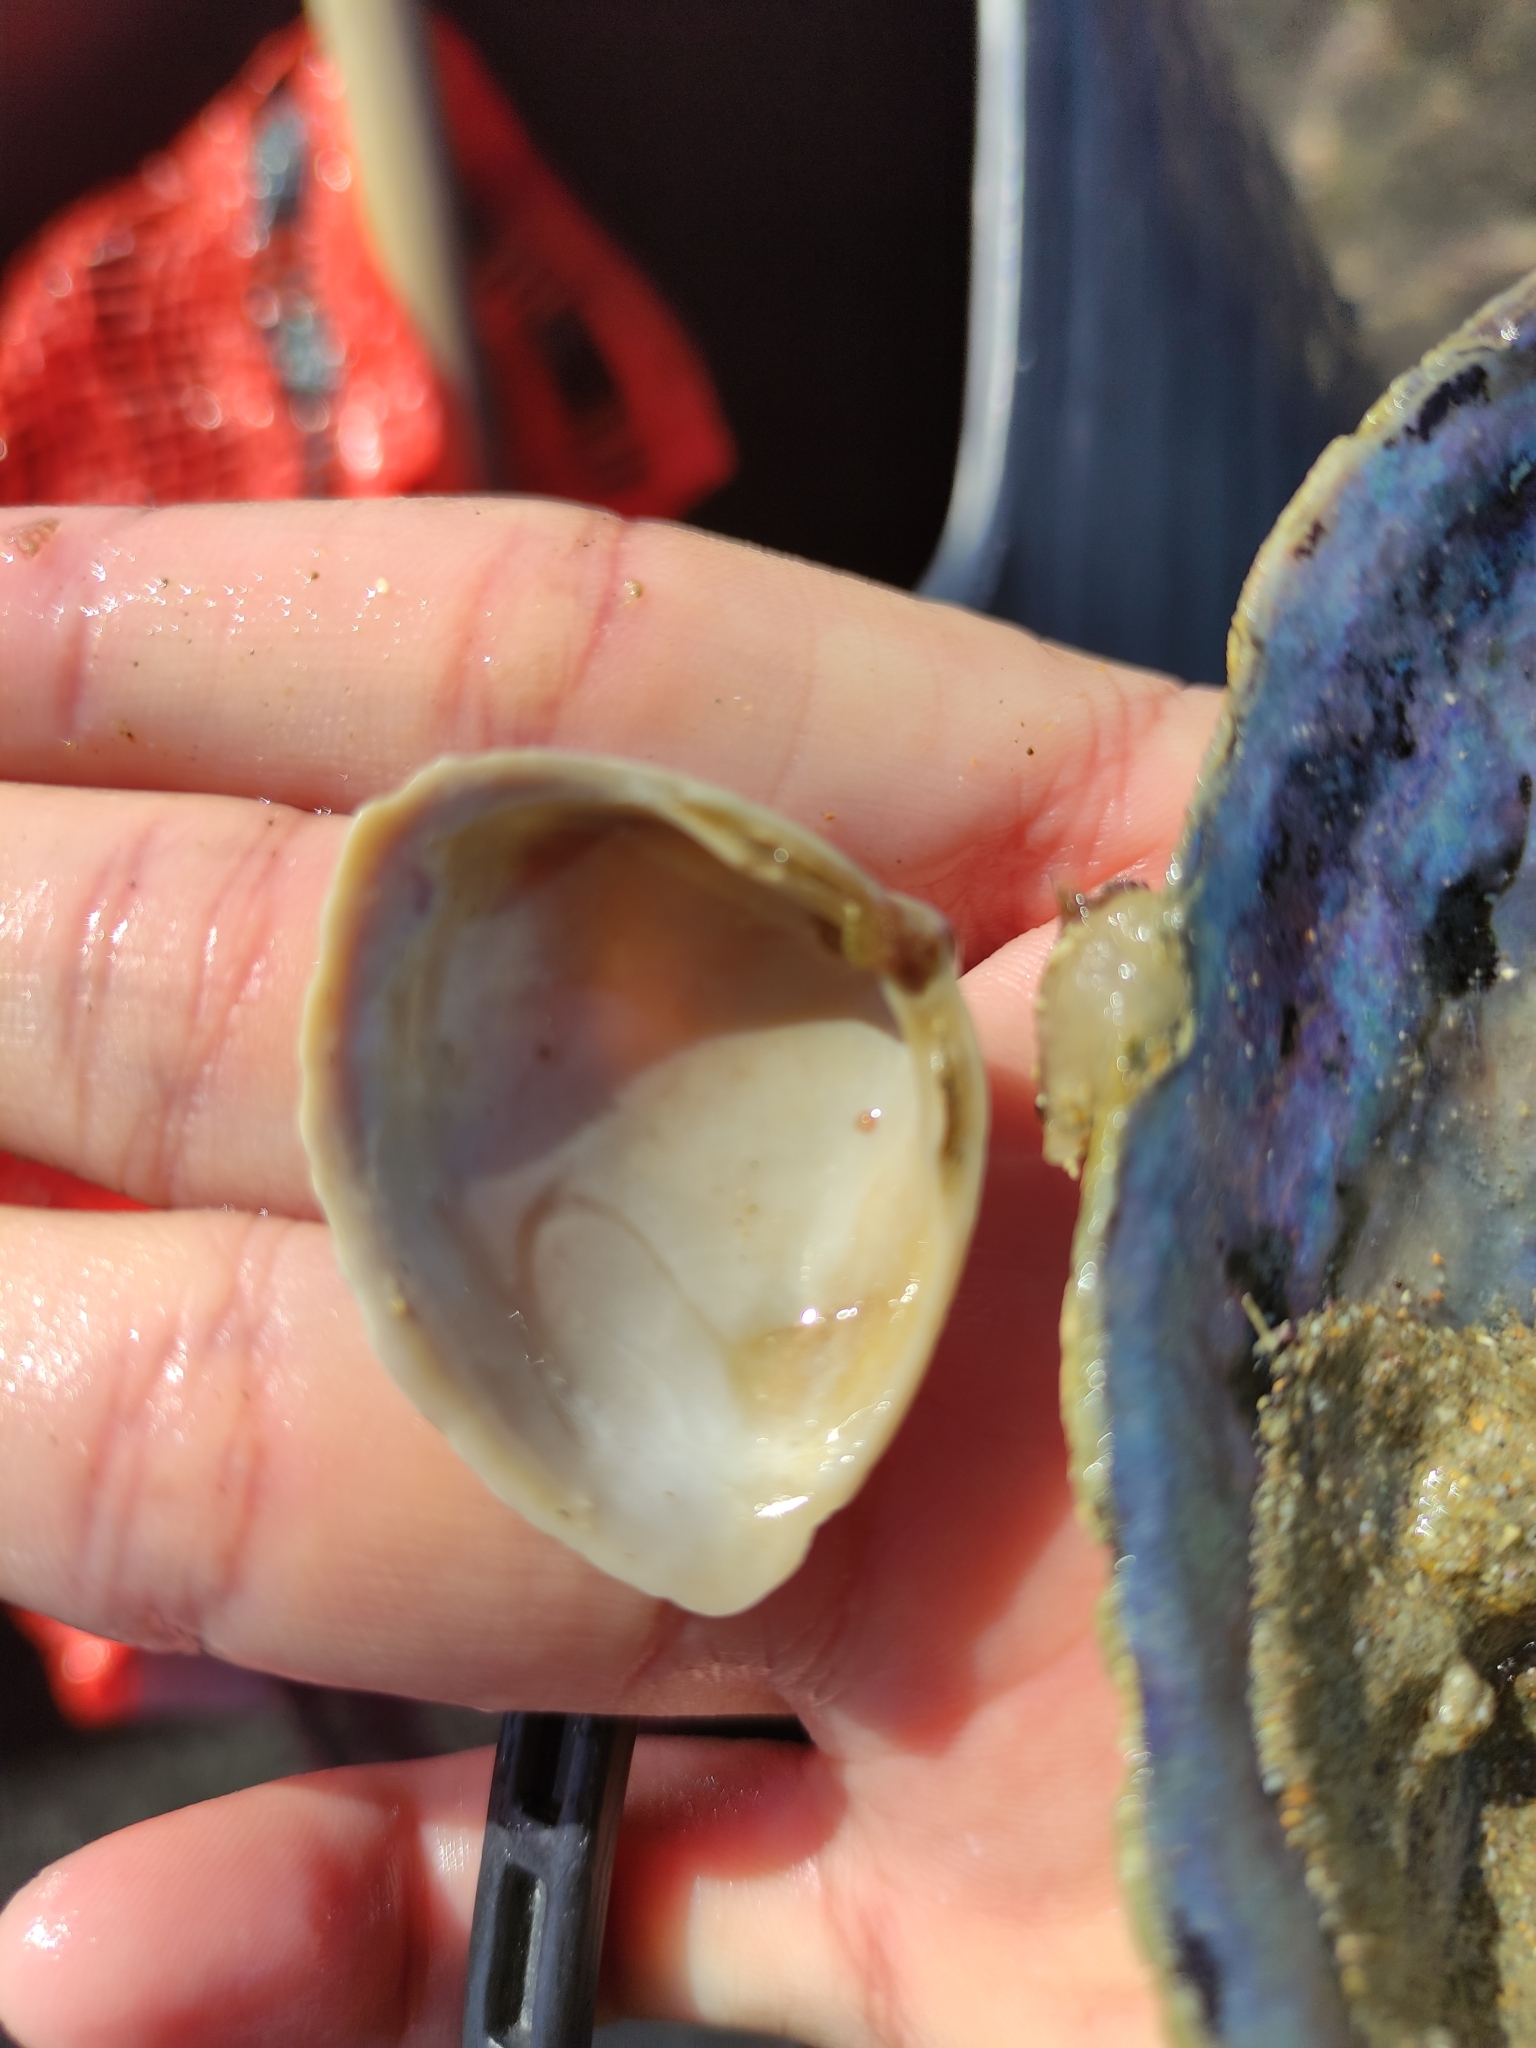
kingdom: Animalia
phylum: Mollusca
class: Bivalvia
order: Venerida
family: Mactridae
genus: Crassula
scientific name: Crassula aequilatera
